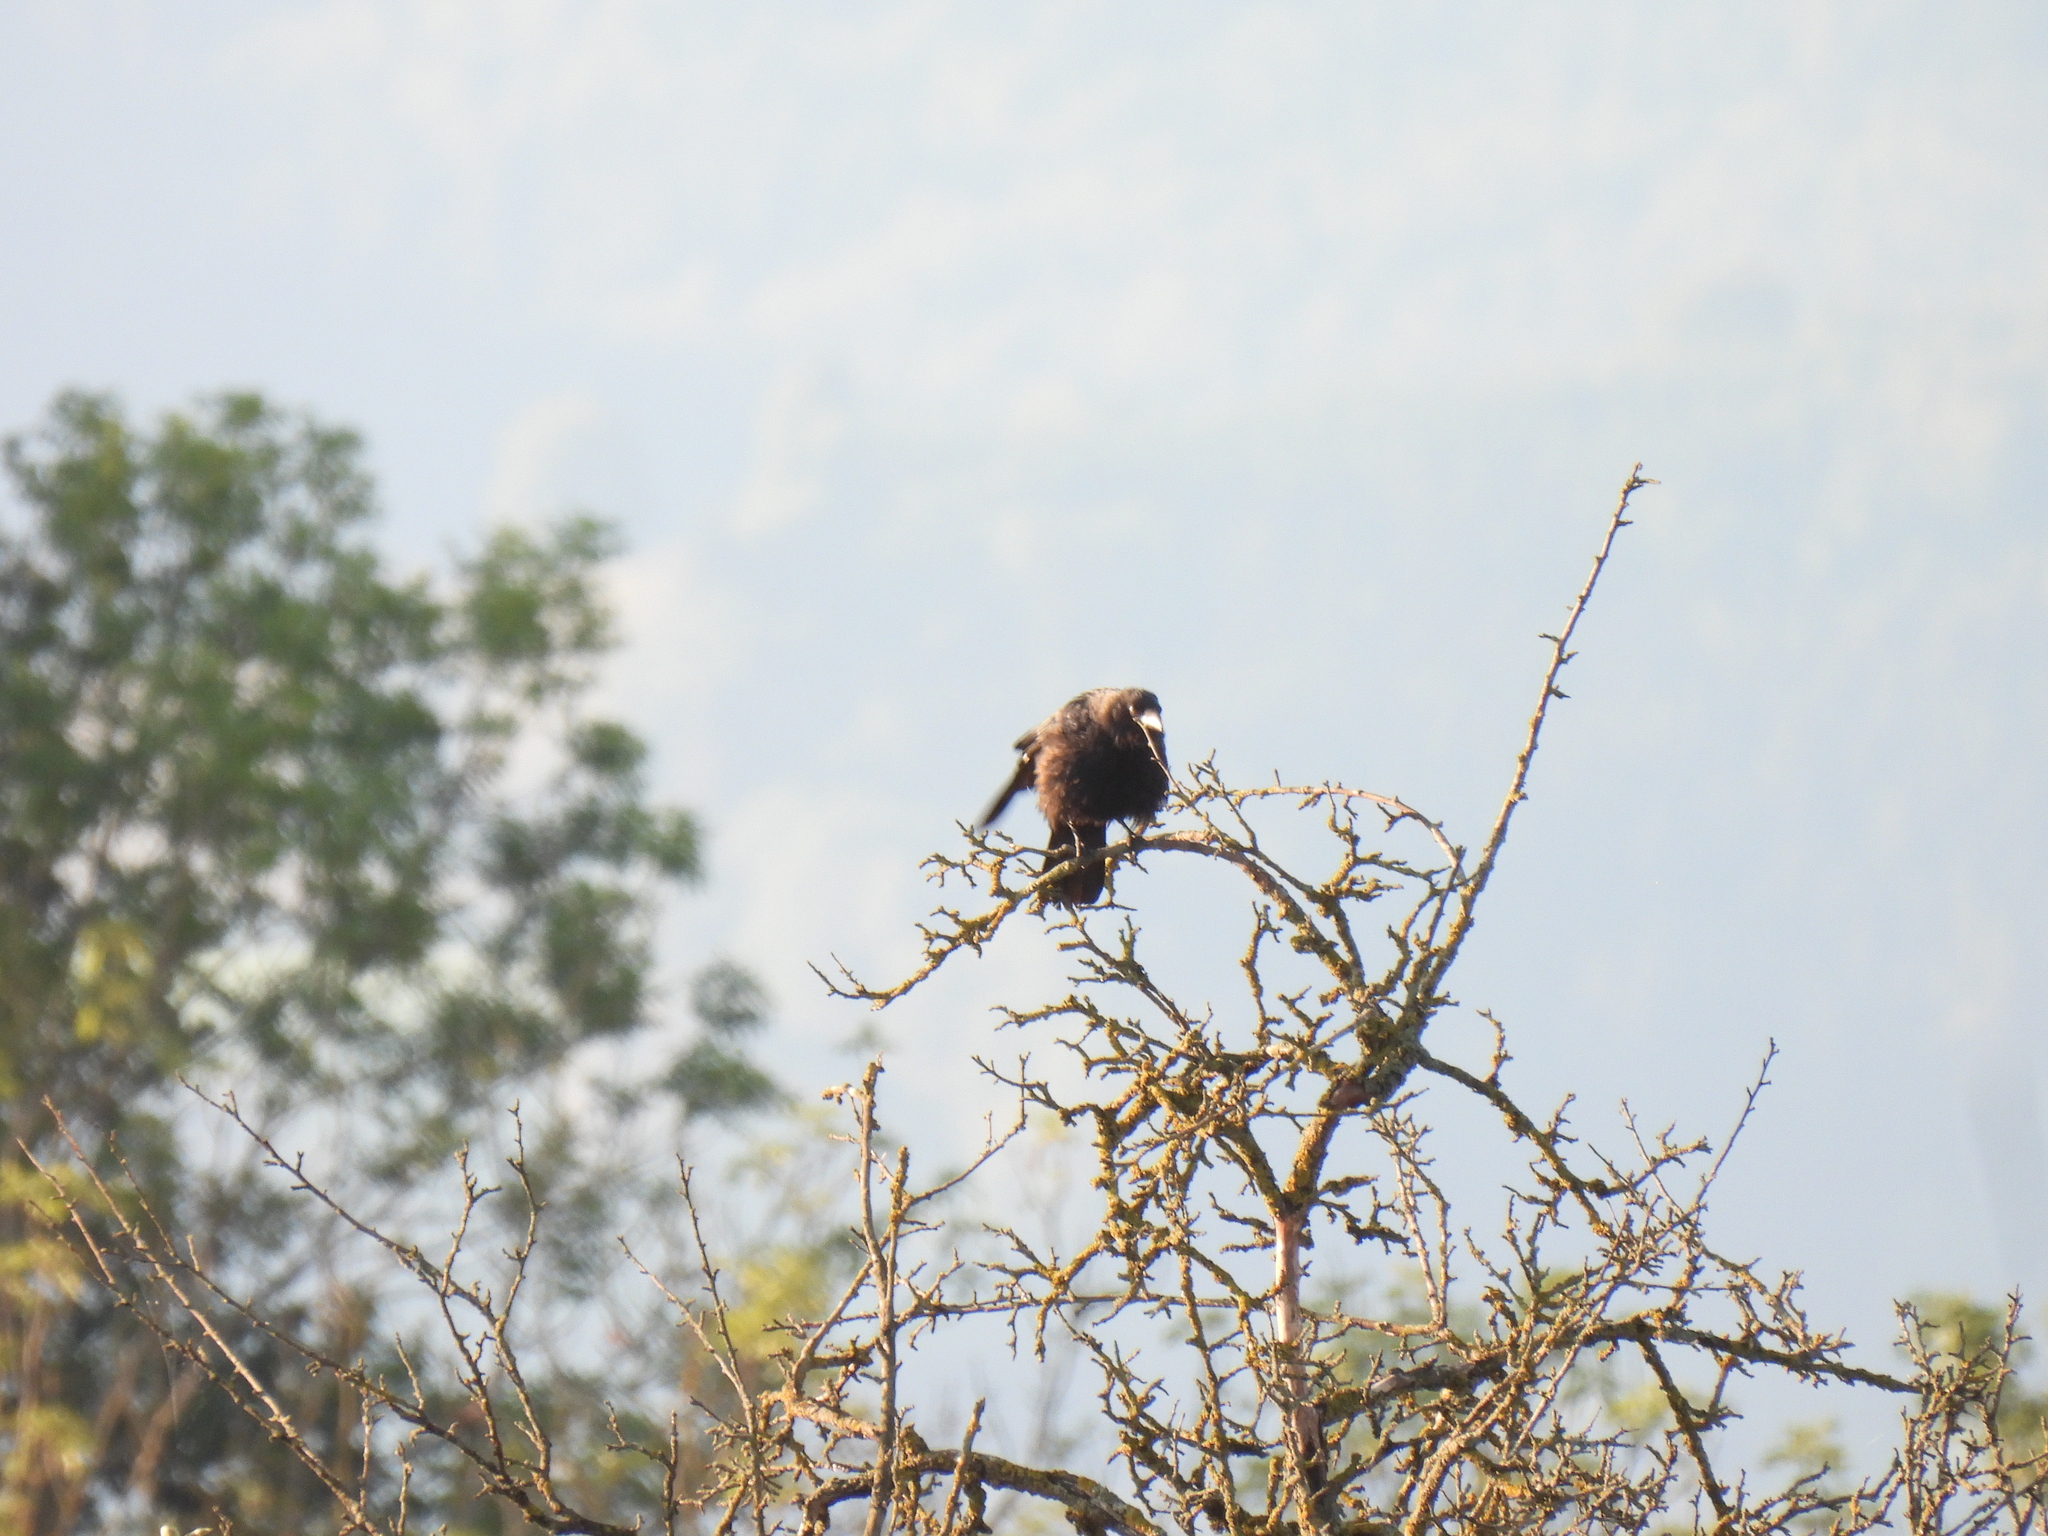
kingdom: Animalia
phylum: Chordata
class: Aves
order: Passeriformes
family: Corvidae
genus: Corvus
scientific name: Corvus corone
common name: Carrion crow
